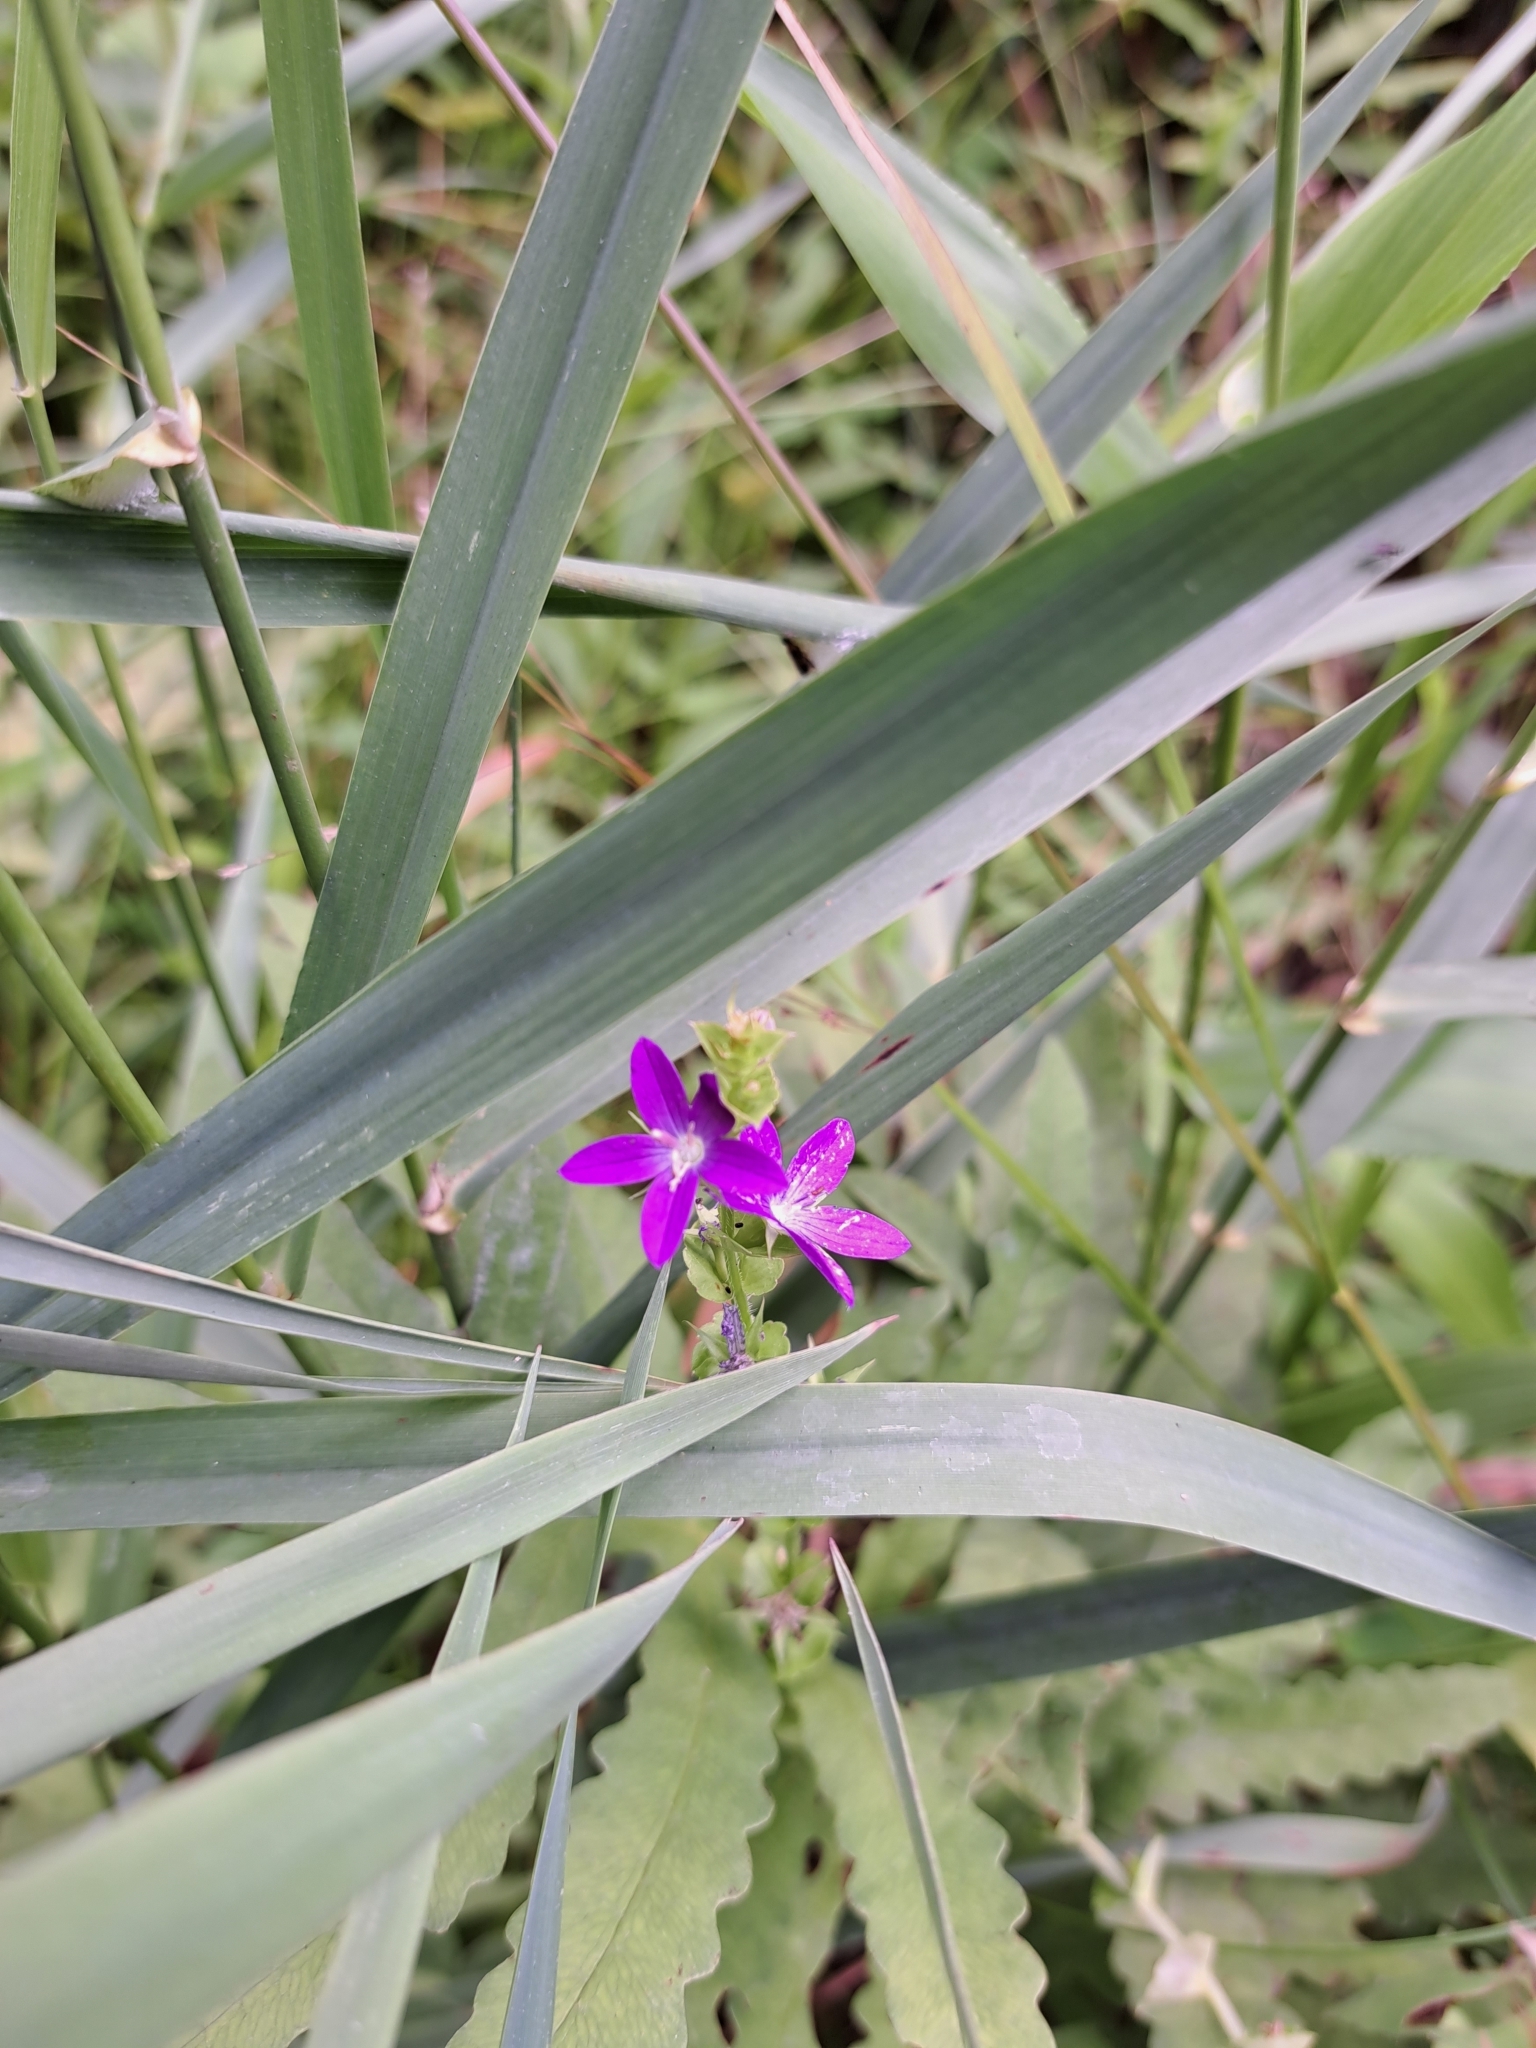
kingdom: Plantae
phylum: Tracheophyta
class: Magnoliopsida
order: Asterales
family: Campanulaceae
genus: Triodanis
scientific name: Triodanis perfoliata
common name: Clasping venus' looking-glass
